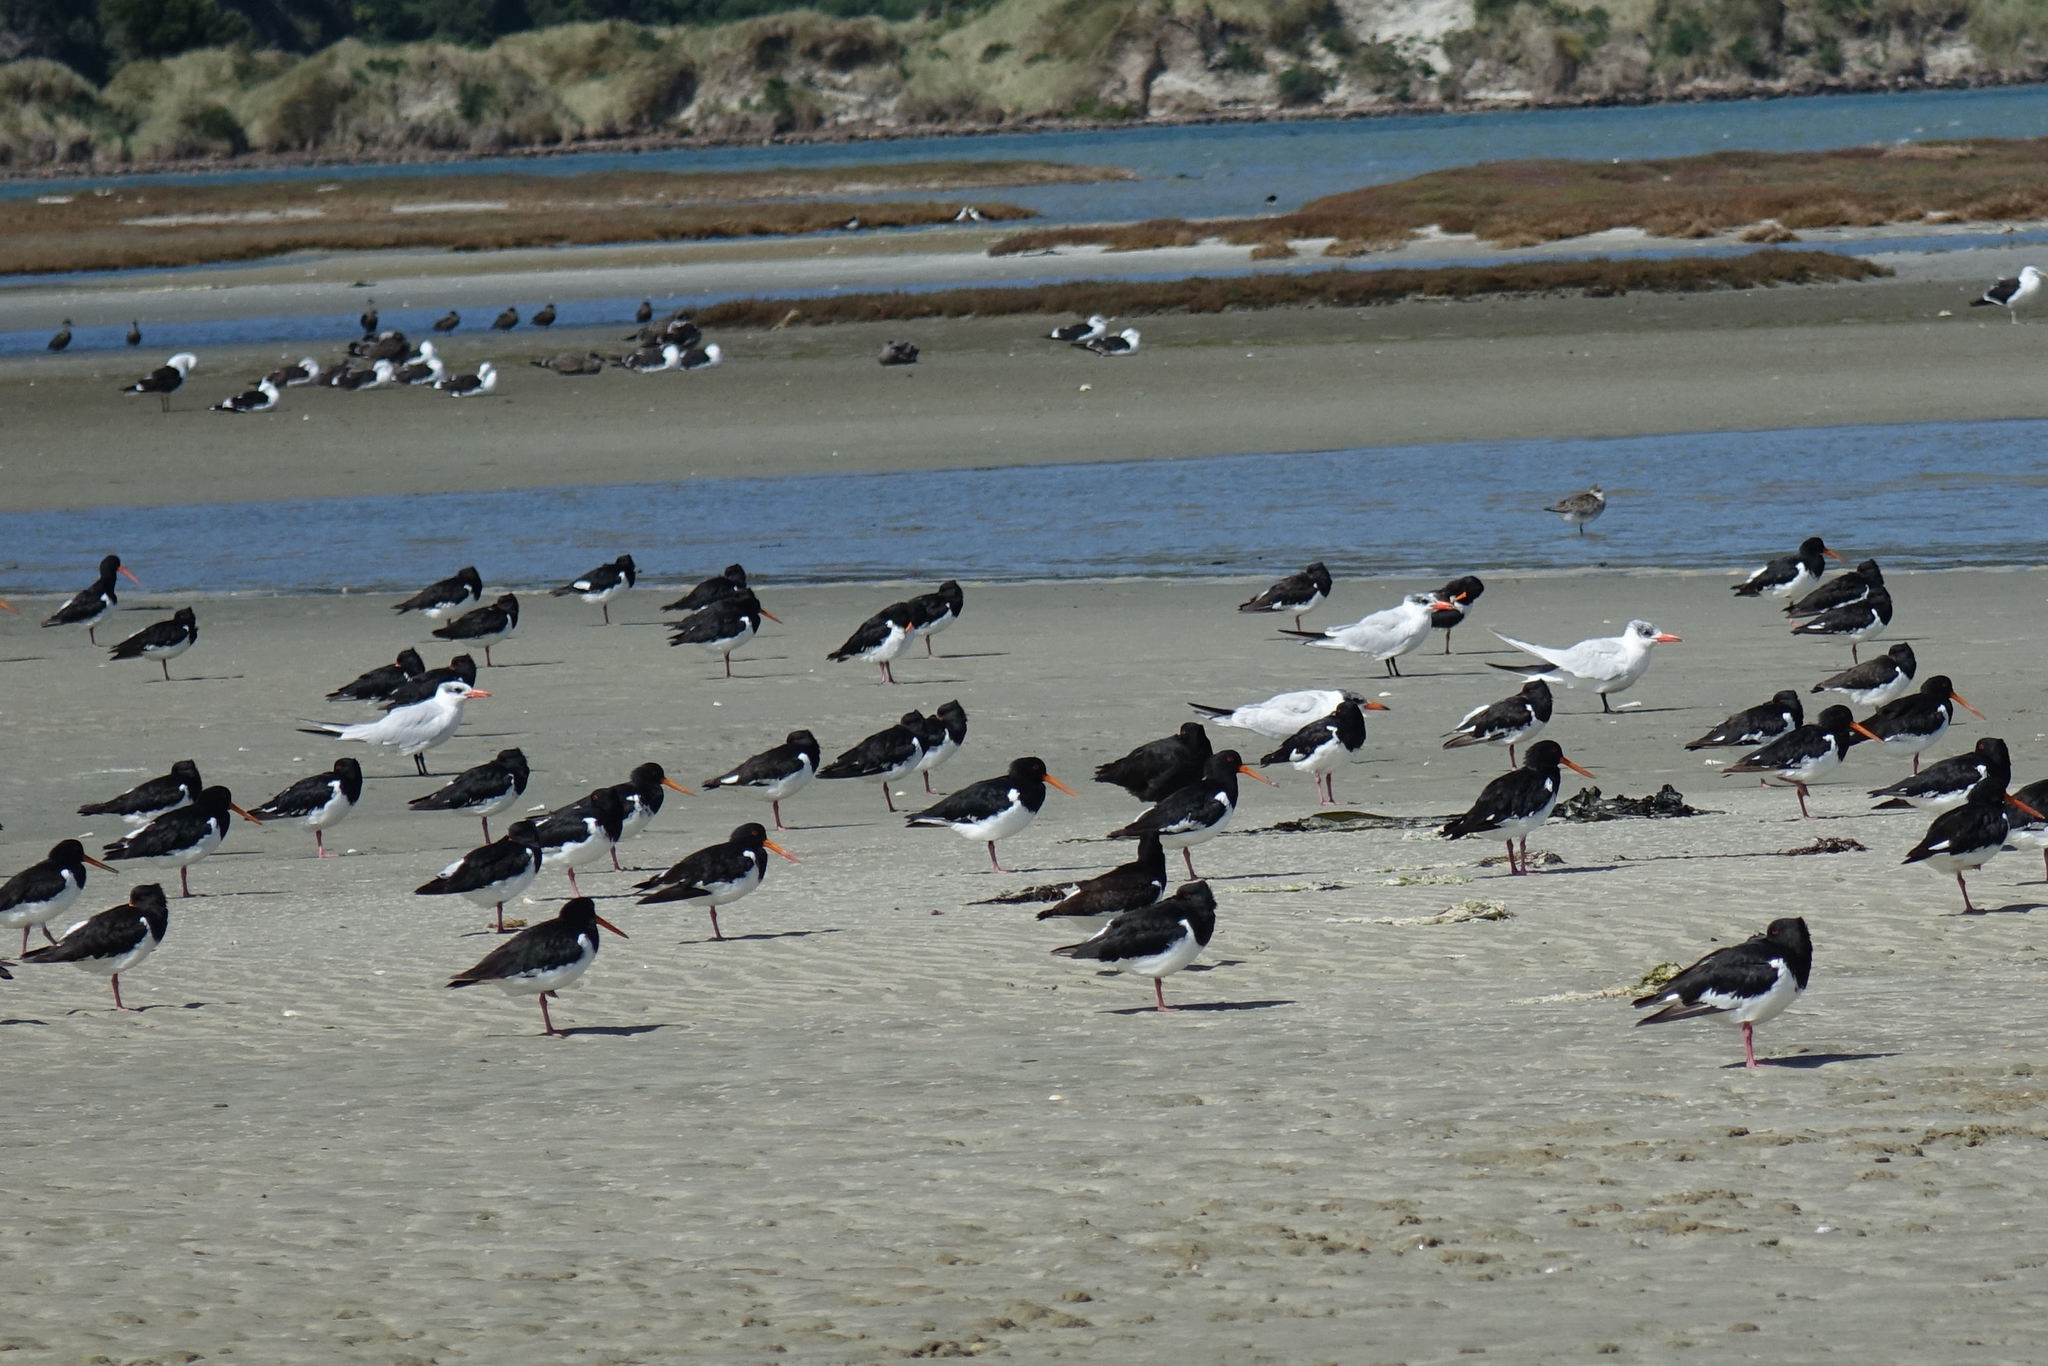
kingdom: Animalia
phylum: Chordata
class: Aves
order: Charadriiformes
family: Laridae
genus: Hydroprogne
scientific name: Hydroprogne caspia
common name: Caspian tern
